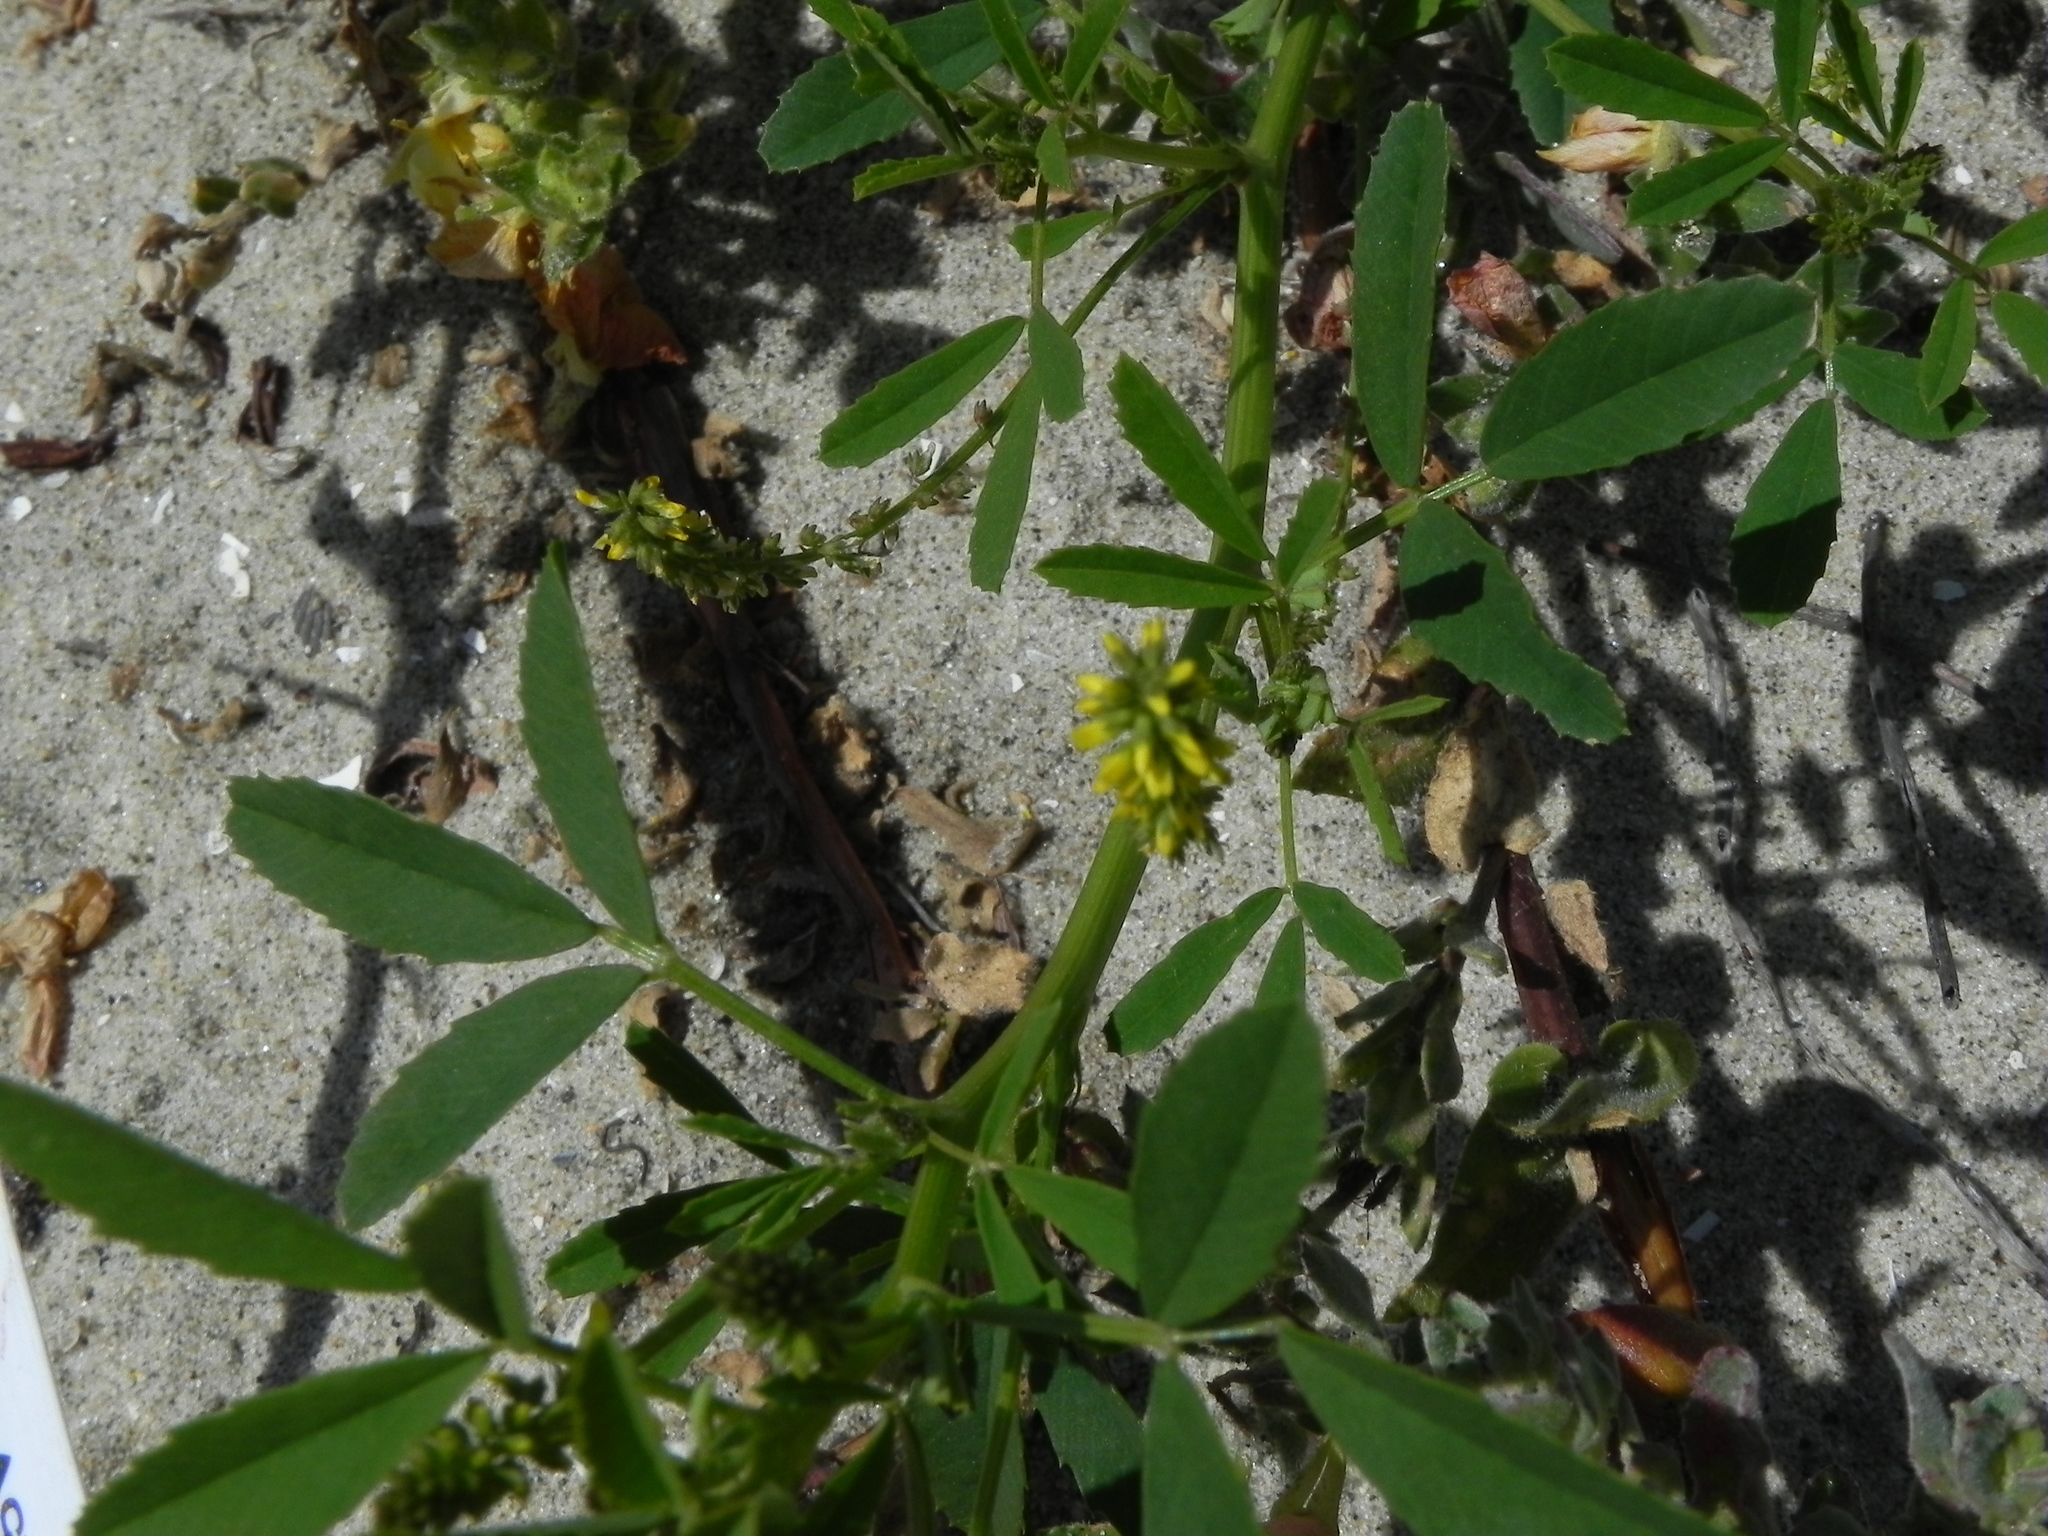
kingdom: Plantae
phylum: Tracheophyta
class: Magnoliopsida
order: Fabales
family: Fabaceae
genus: Melilotus
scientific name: Melilotus indicus
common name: Small melilot
